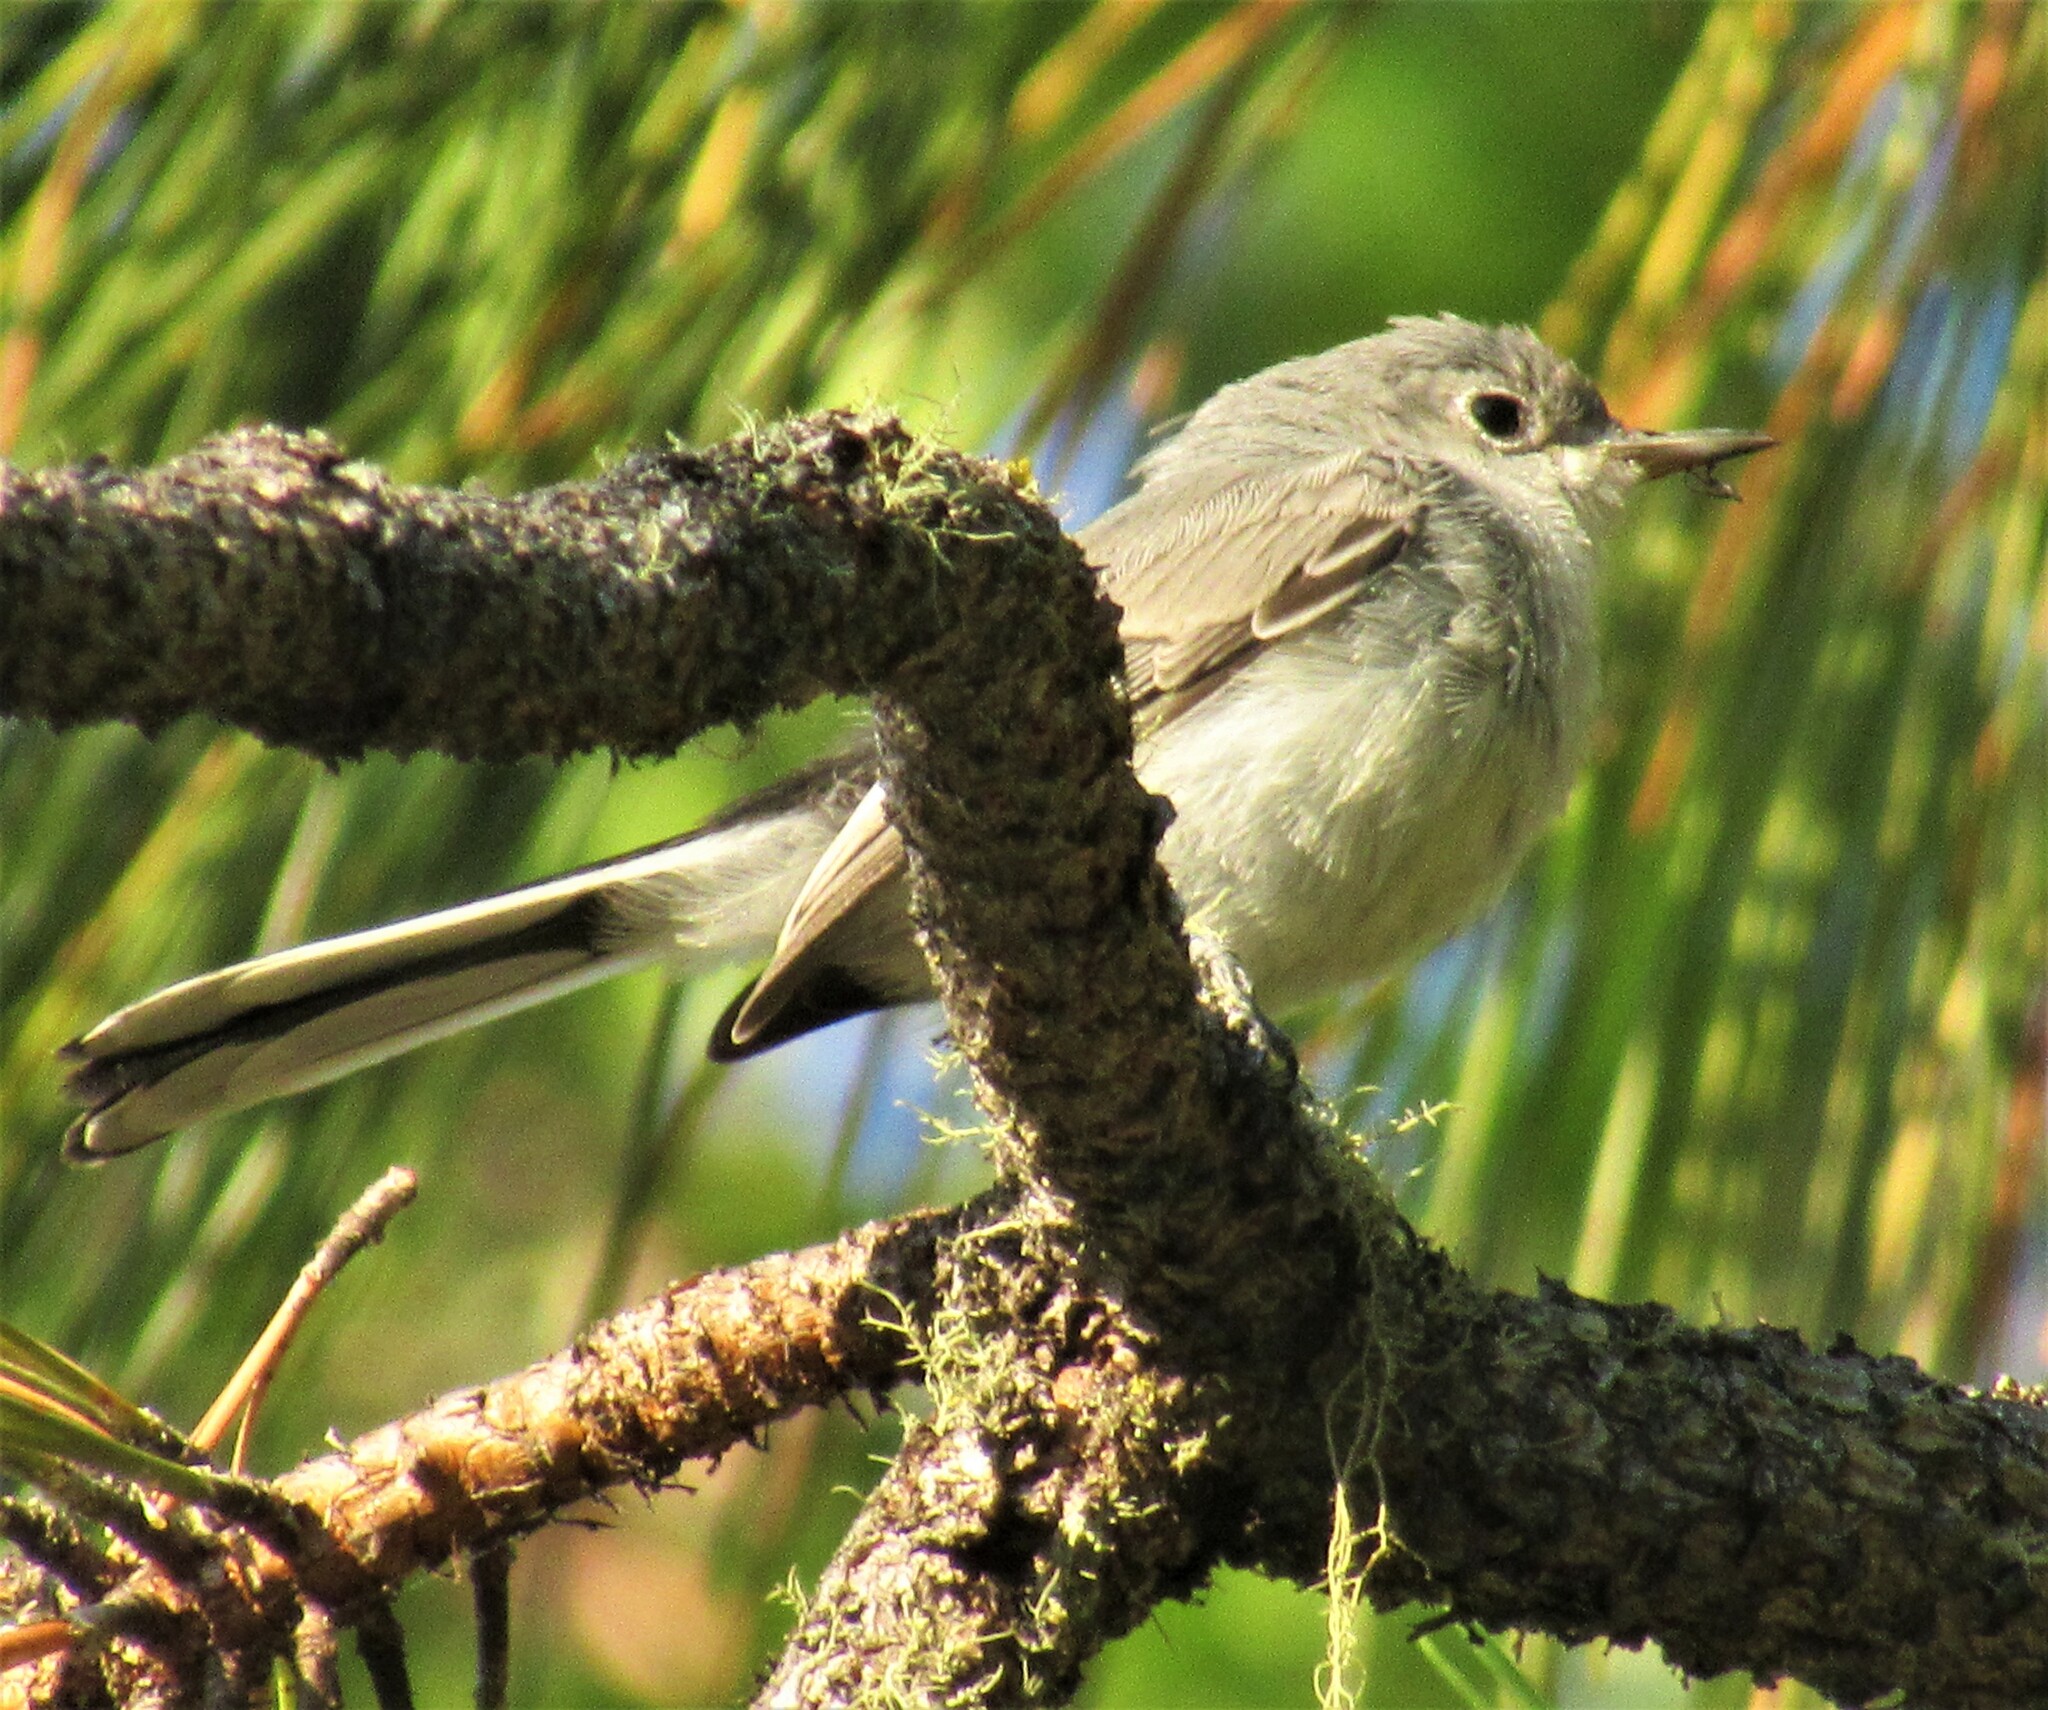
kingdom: Animalia
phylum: Chordata
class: Aves
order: Passeriformes
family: Polioptilidae
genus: Polioptila
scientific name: Polioptila caerulea
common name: Blue-gray gnatcatcher
